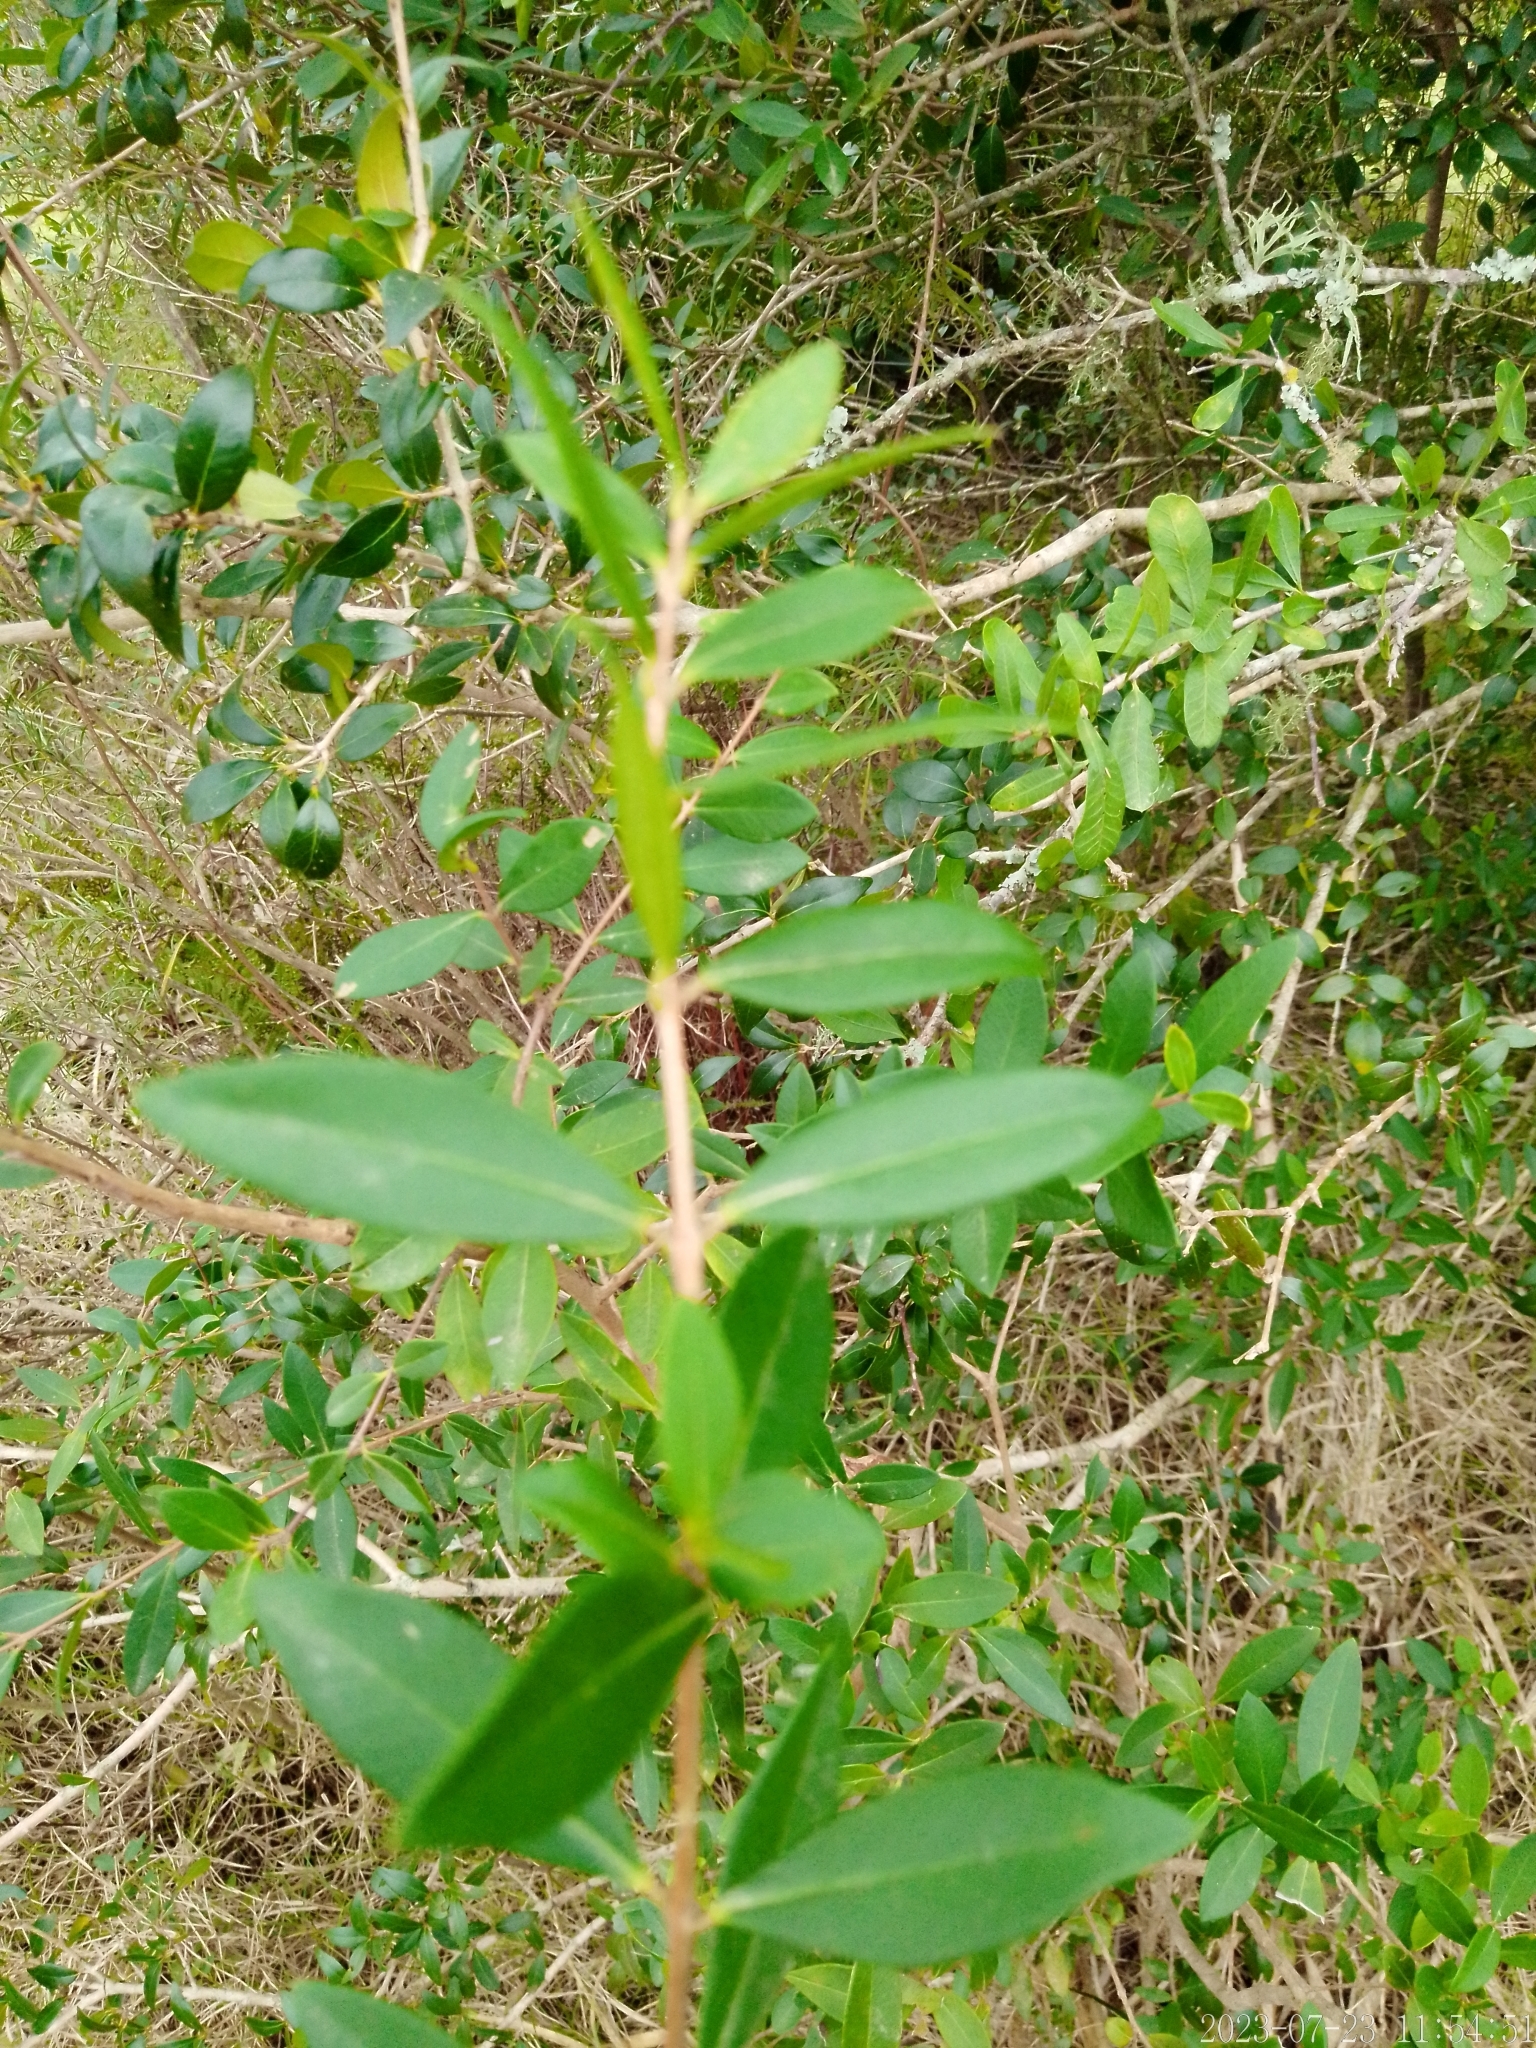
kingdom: Plantae
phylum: Tracheophyta
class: Magnoliopsida
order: Myrtales
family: Myrtaceae
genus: Myrrhinium
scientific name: Myrrhinium atropurpureum
